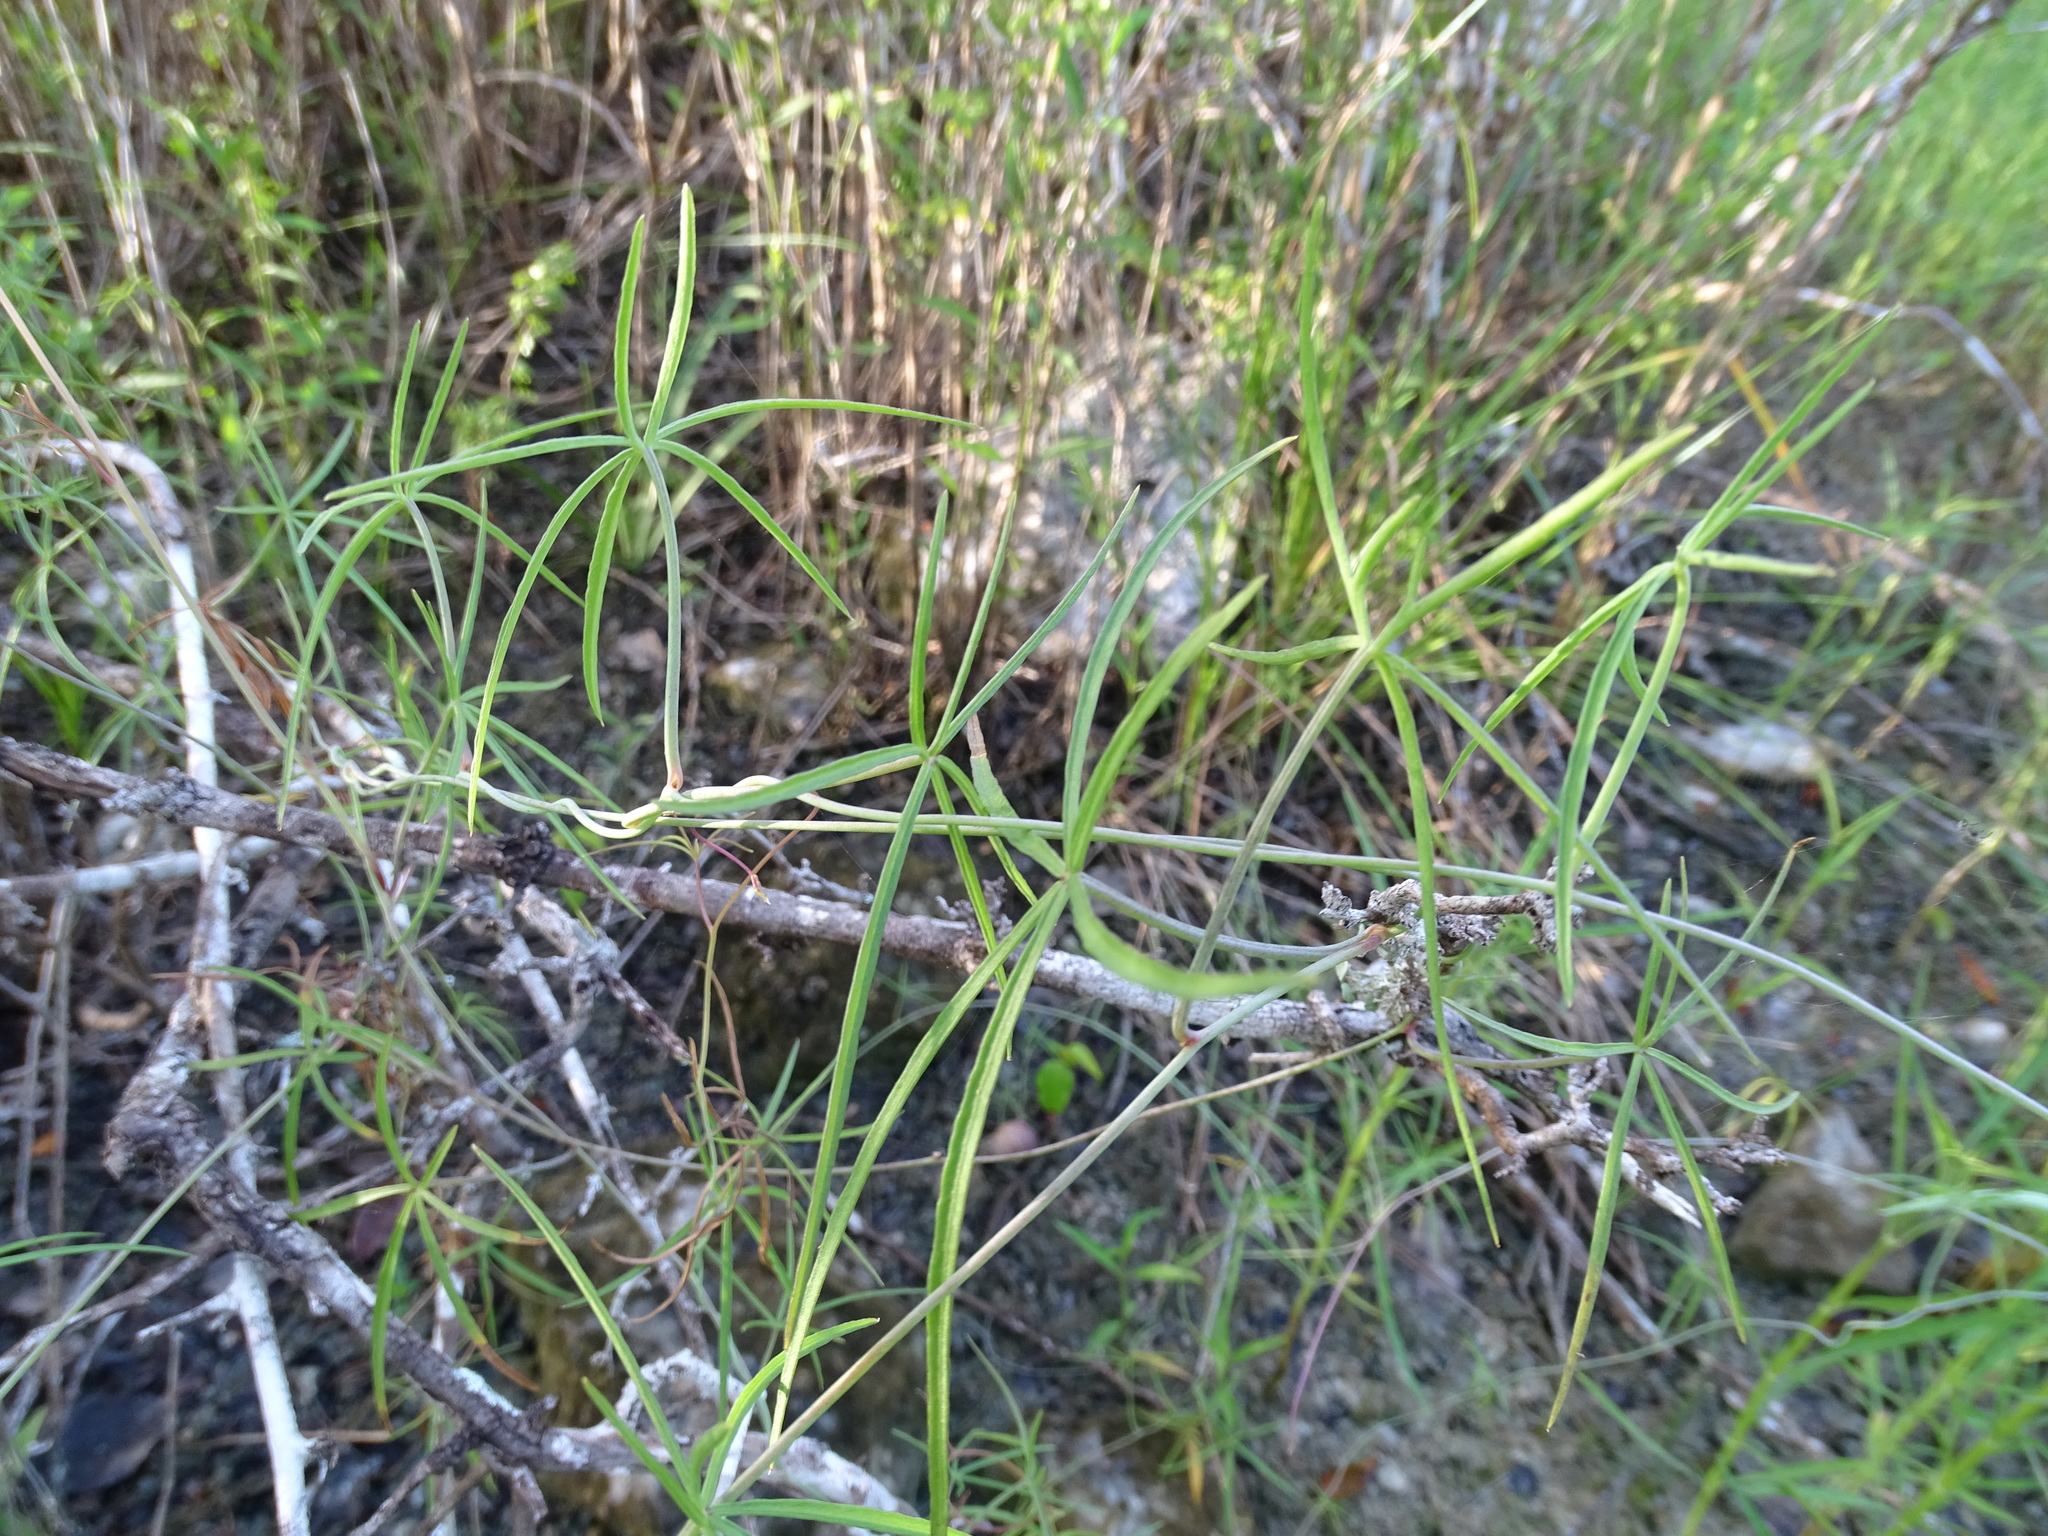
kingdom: Plantae
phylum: Tracheophyta
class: Magnoliopsida
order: Solanales
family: Convolvulaceae
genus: Ipomoea
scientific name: Ipomoea sororia
